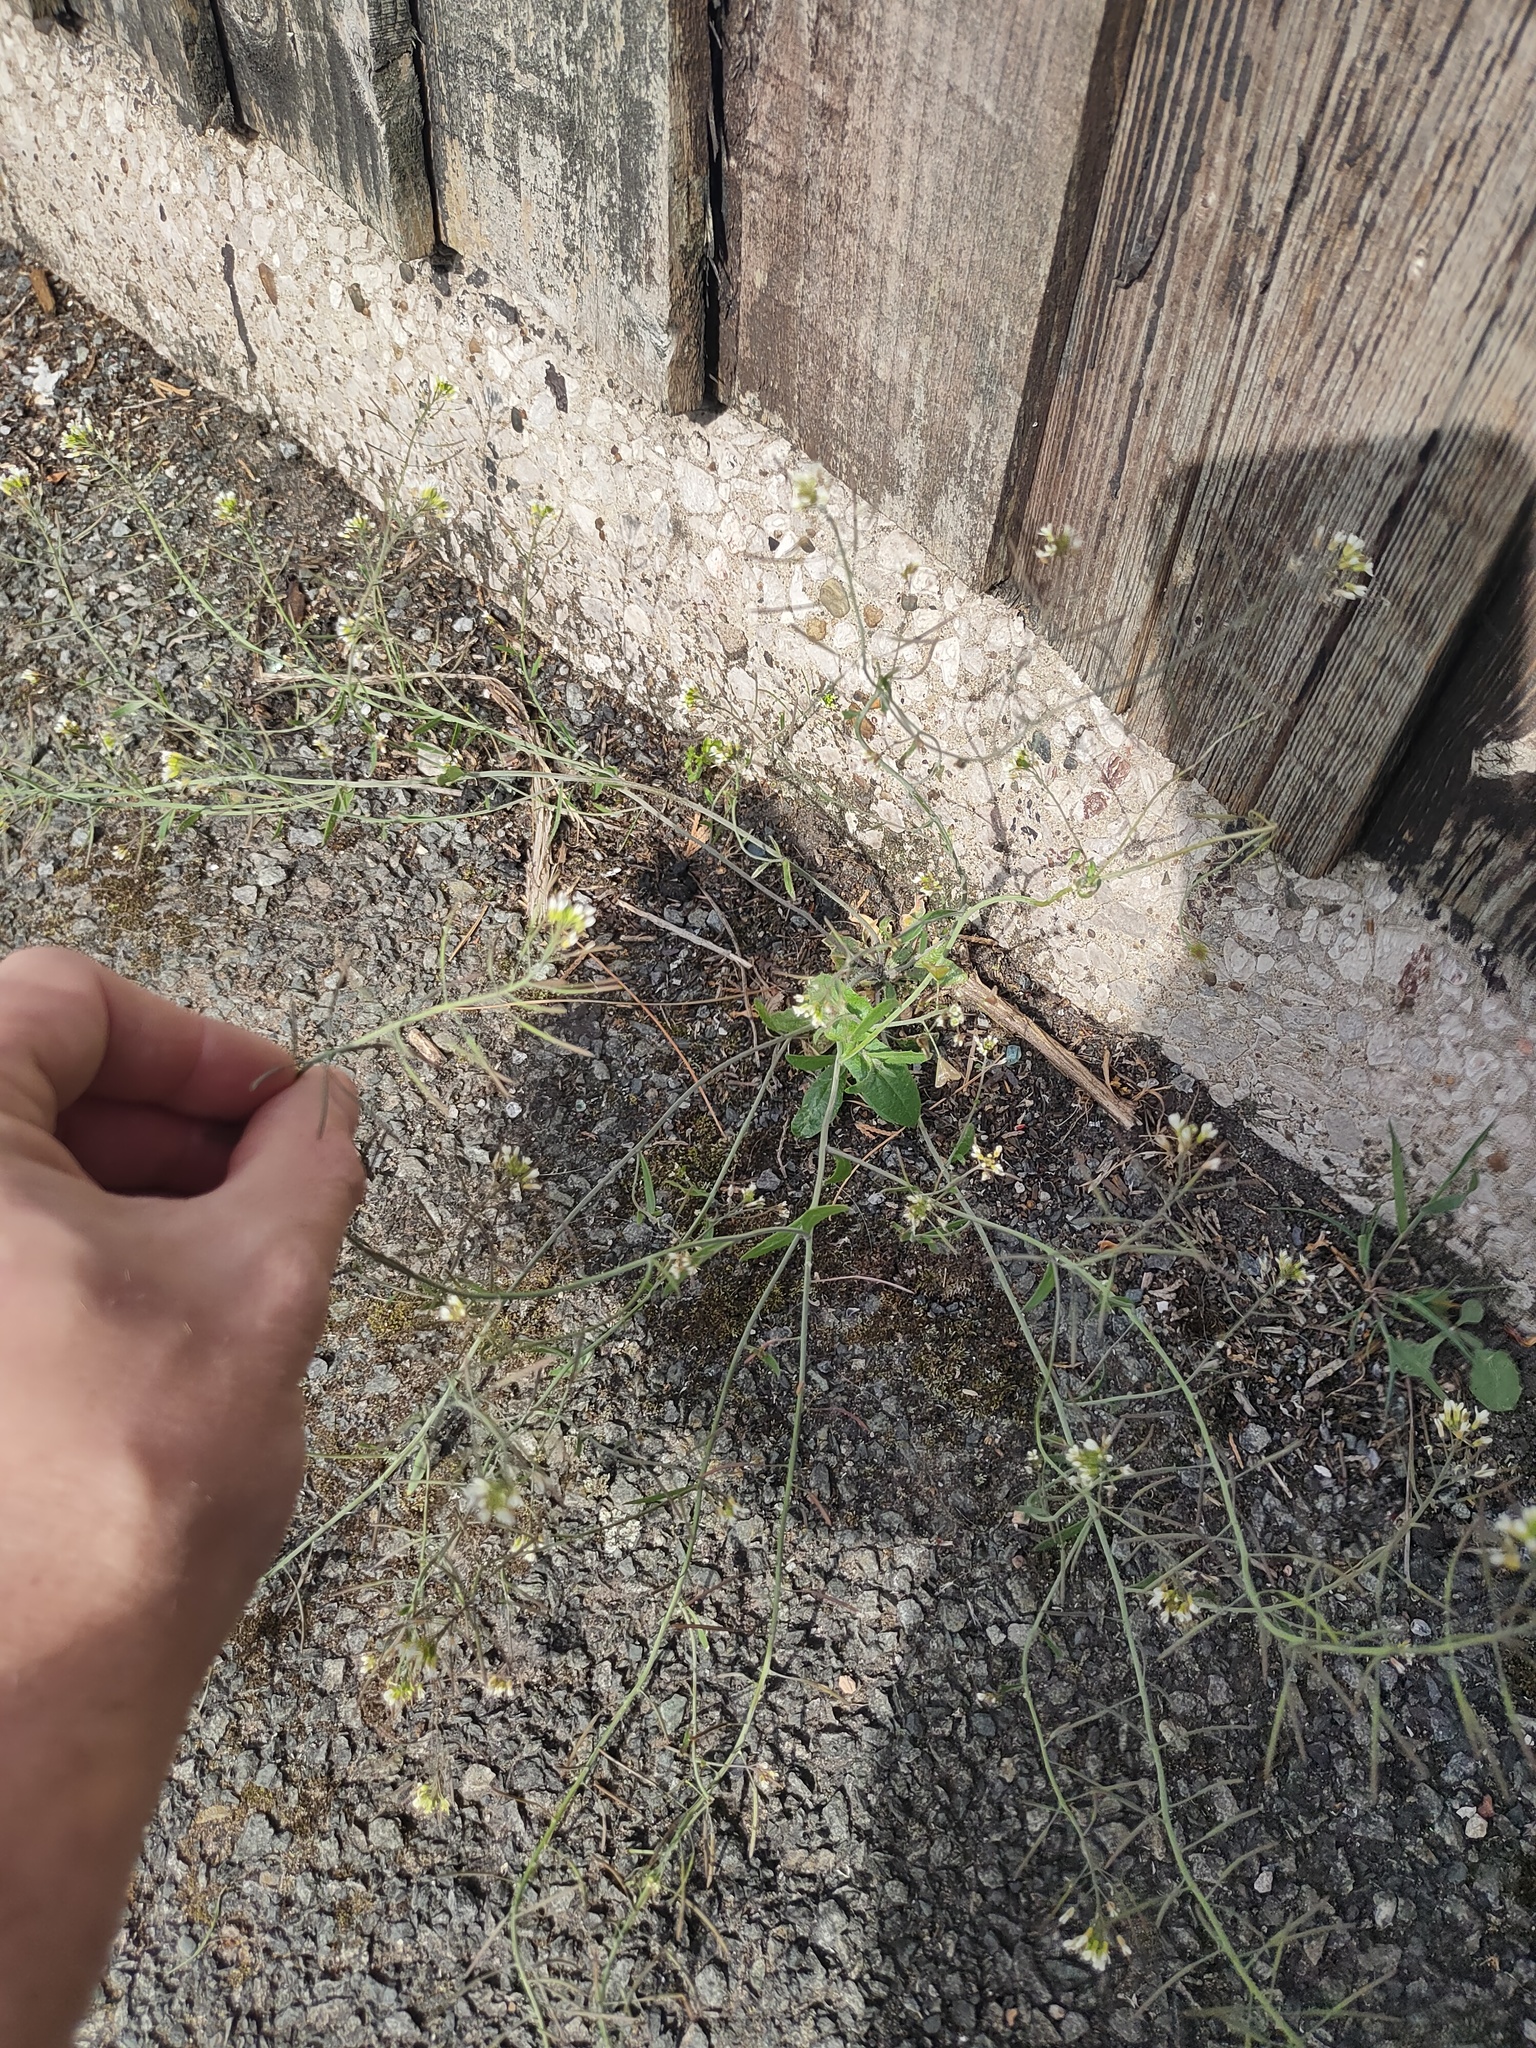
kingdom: Plantae
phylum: Tracheophyta
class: Magnoliopsida
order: Brassicales
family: Brassicaceae
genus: Arabidopsis
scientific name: Arabidopsis thaliana
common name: Thale cress
